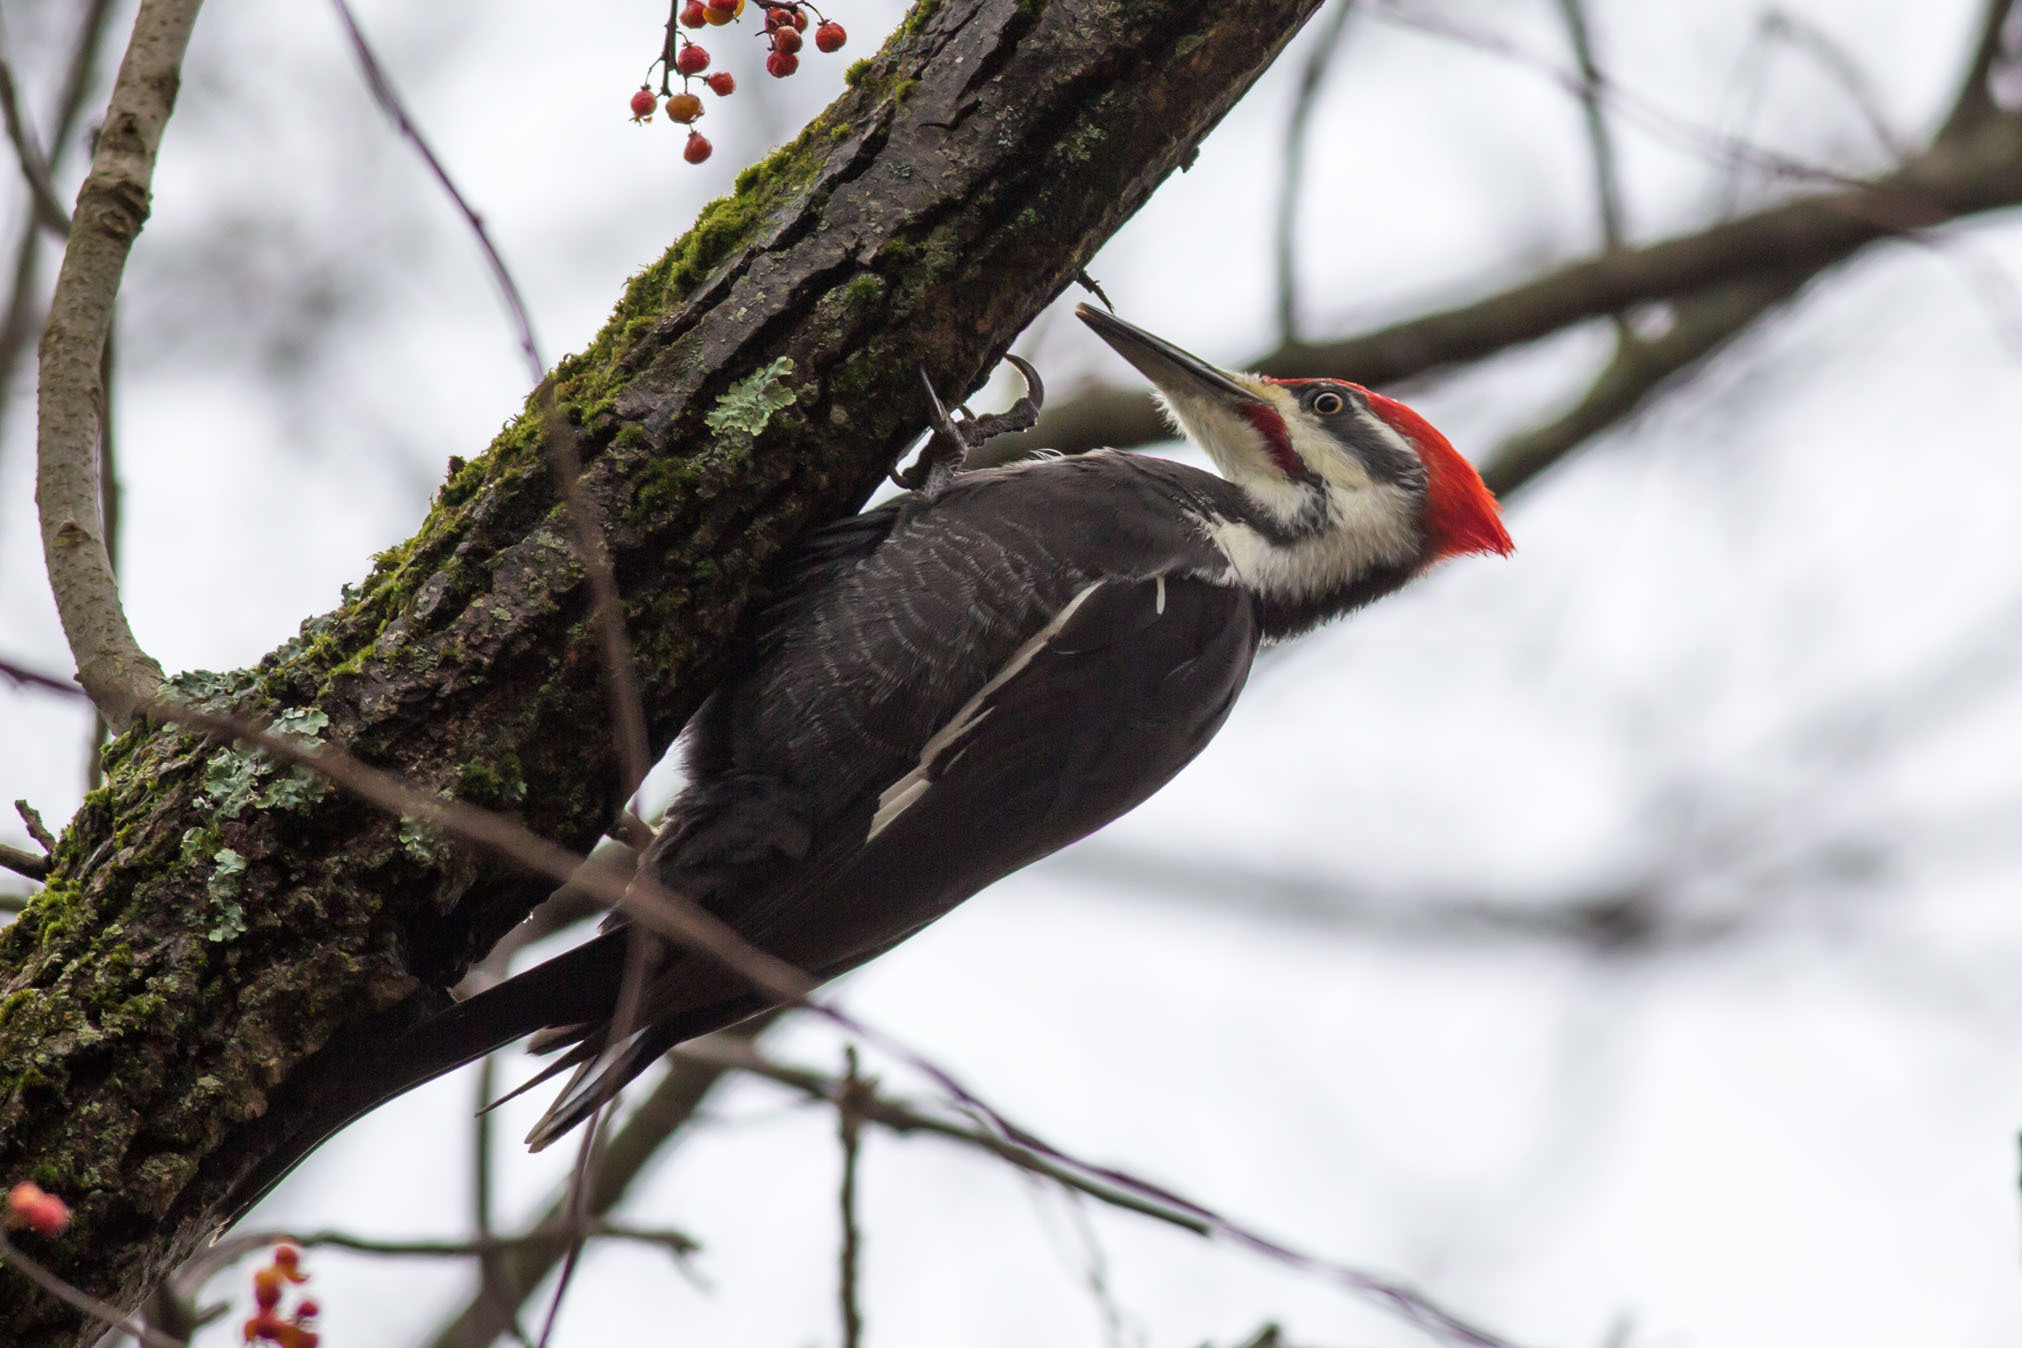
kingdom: Animalia
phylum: Chordata
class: Aves
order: Piciformes
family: Picidae
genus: Dryocopus
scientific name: Dryocopus pileatus
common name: Pileated woodpecker
